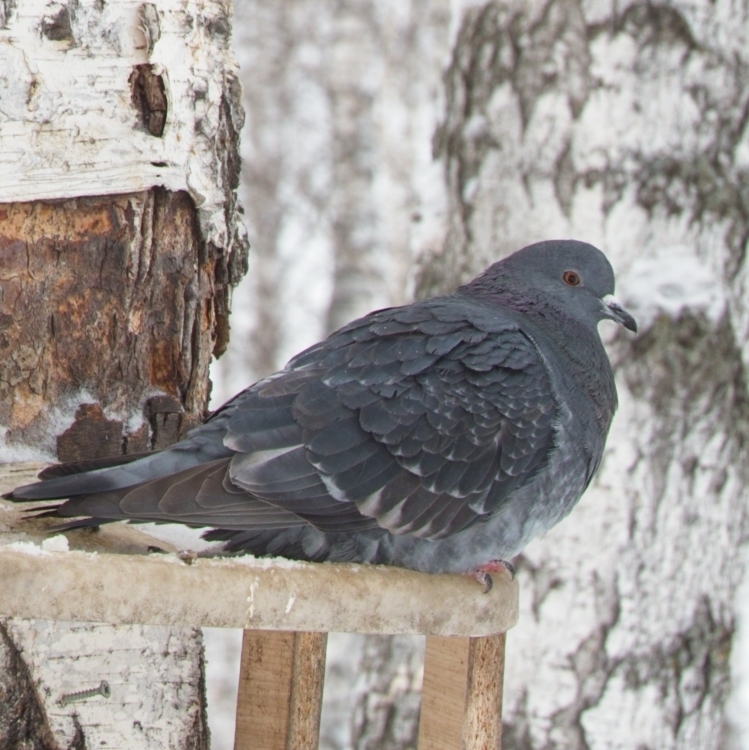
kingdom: Animalia
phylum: Chordata
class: Aves
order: Columbiformes
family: Columbidae
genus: Columba
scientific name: Columba livia
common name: Rock pigeon
